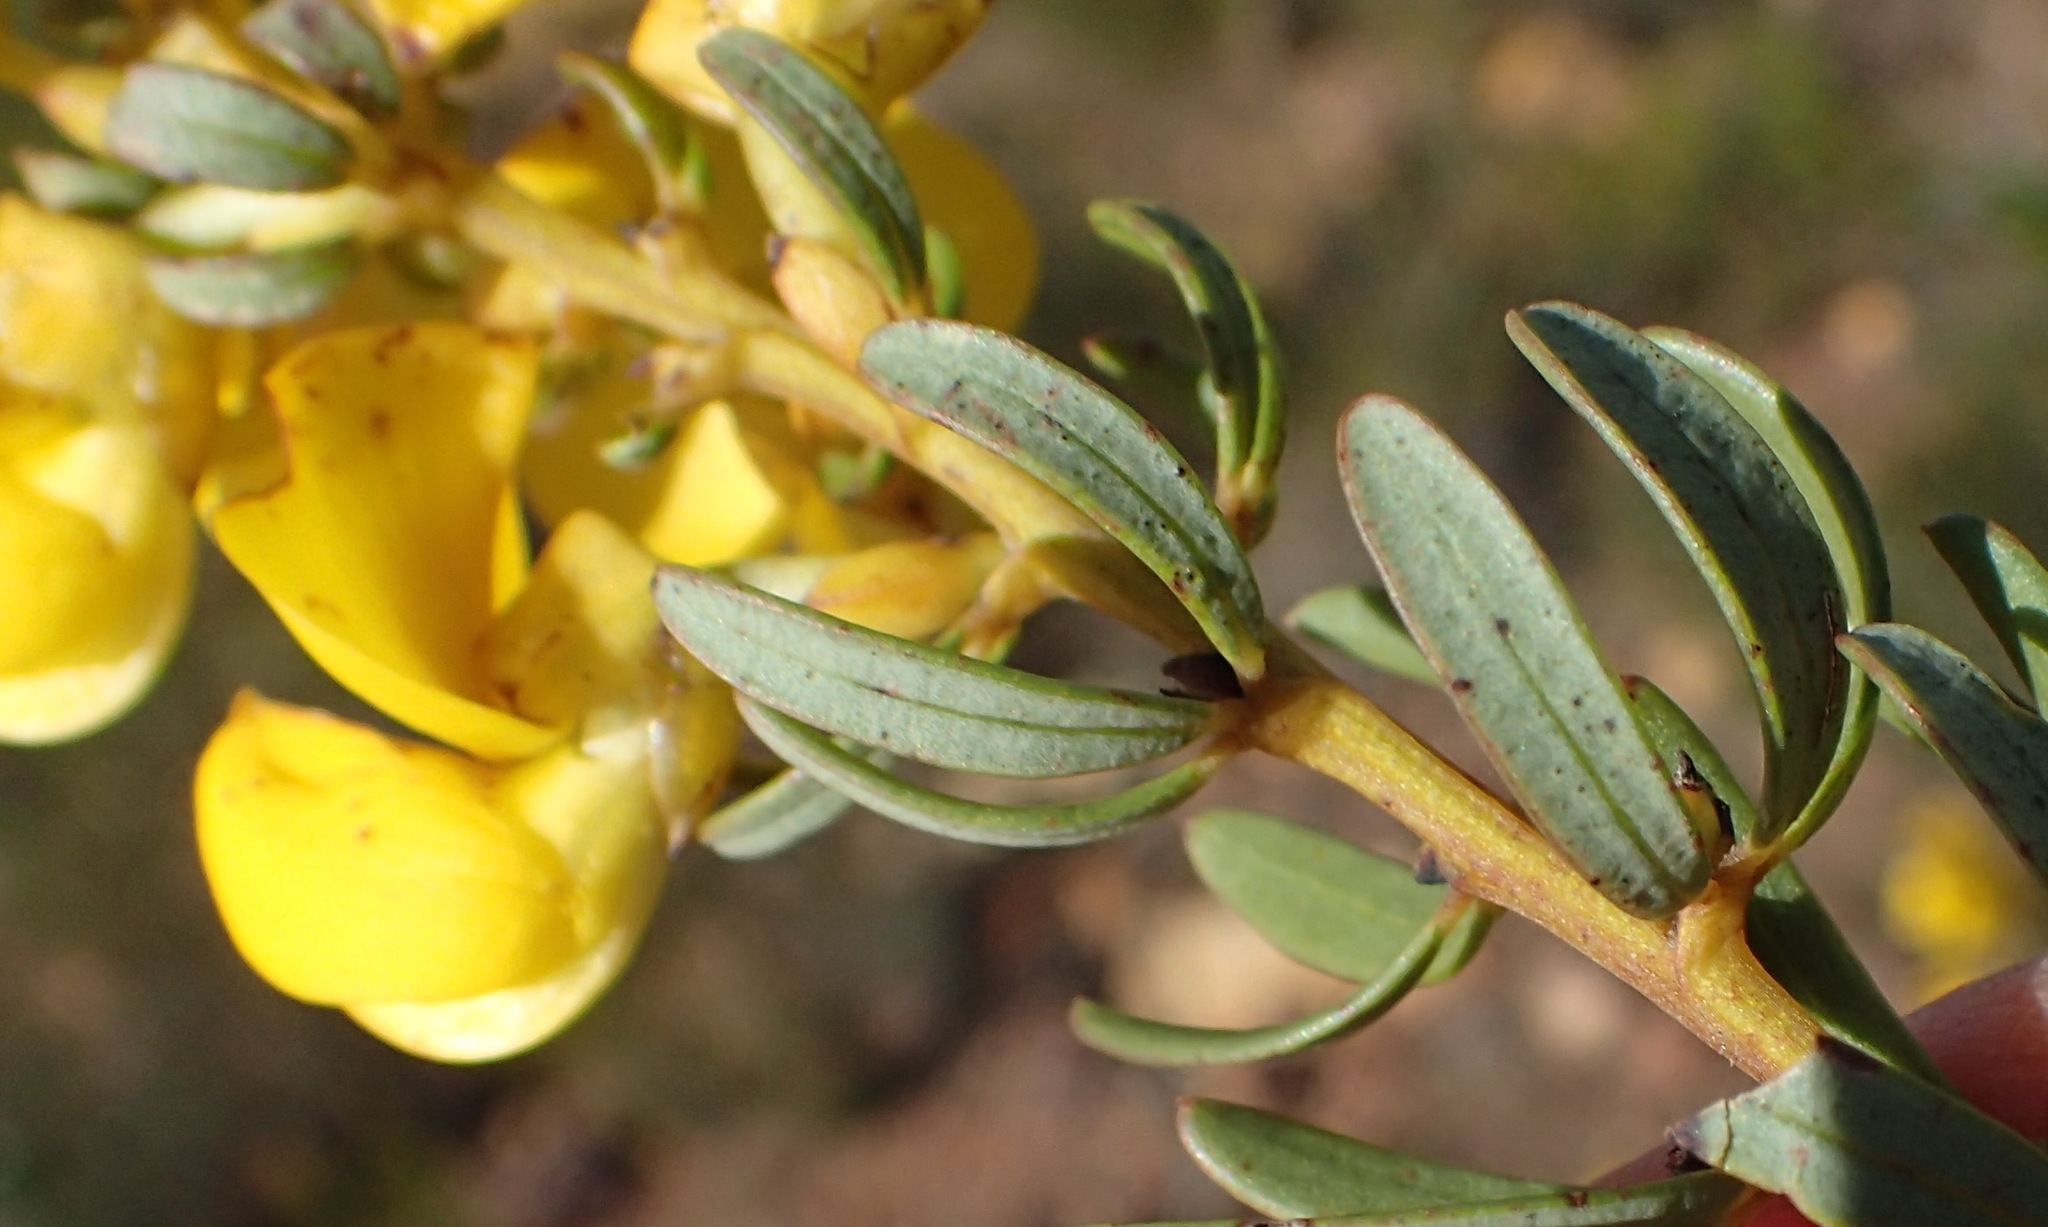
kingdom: Plantae
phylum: Tracheophyta
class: Magnoliopsida
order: Fabales
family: Fabaceae
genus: Cyclopia
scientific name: Cyclopia intermedia
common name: Mountain tea
